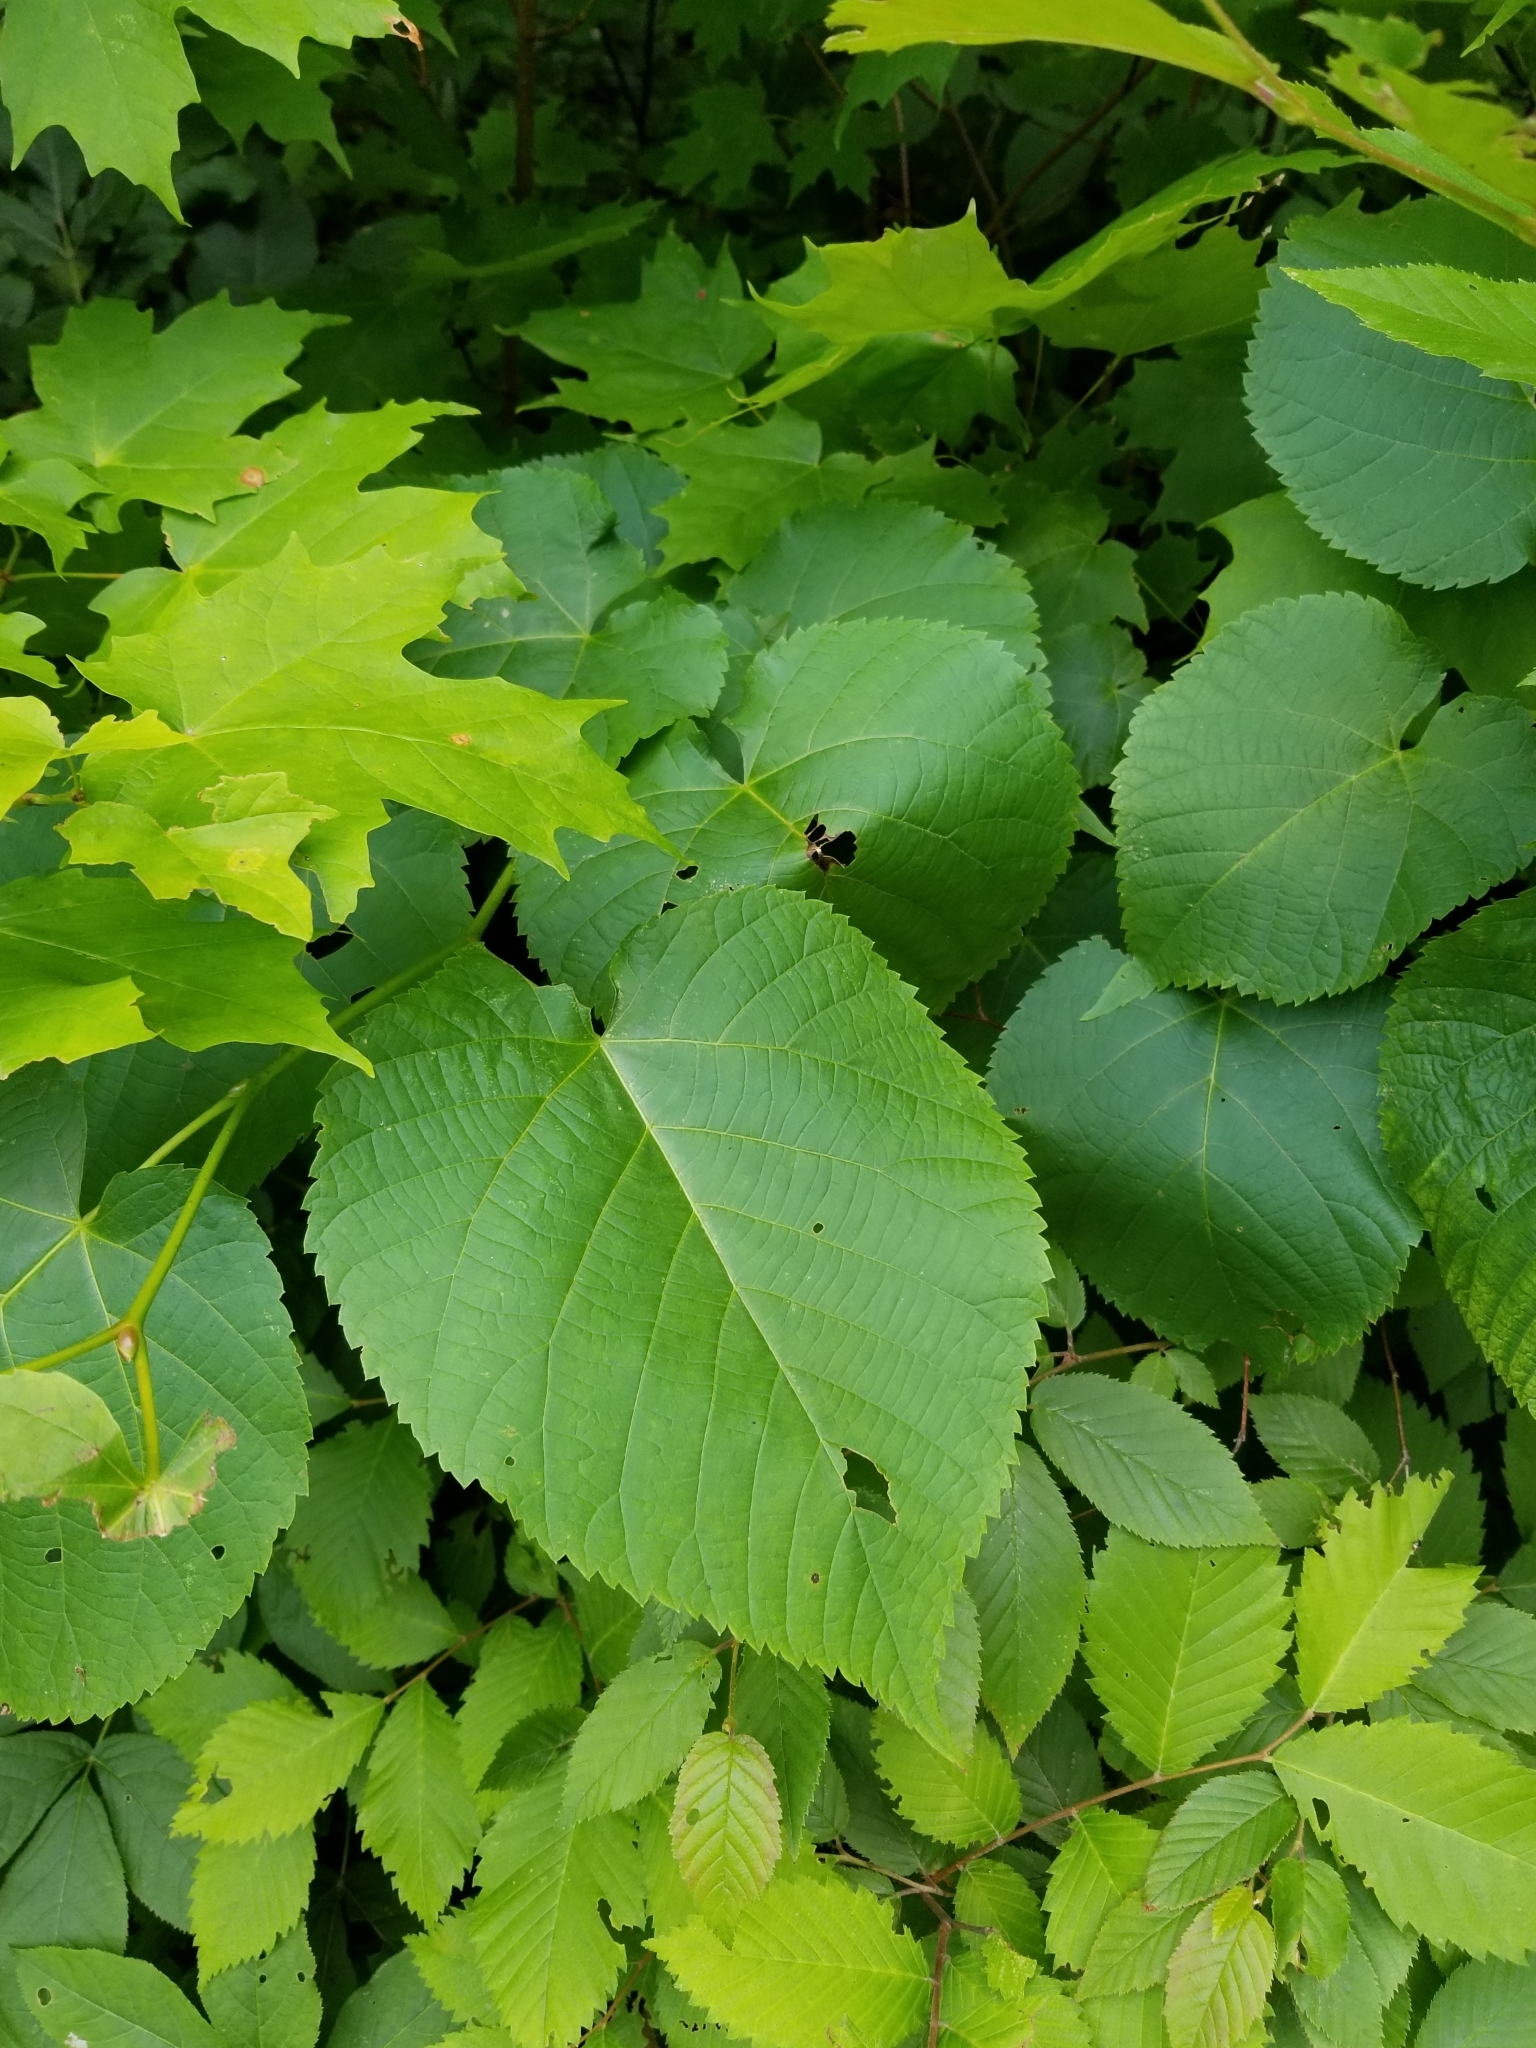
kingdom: Plantae
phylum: Tracheophyta
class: Magnoliopsida
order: Malvales
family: Malvaceae
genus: Tilia
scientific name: Tilia americana
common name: Basswood
